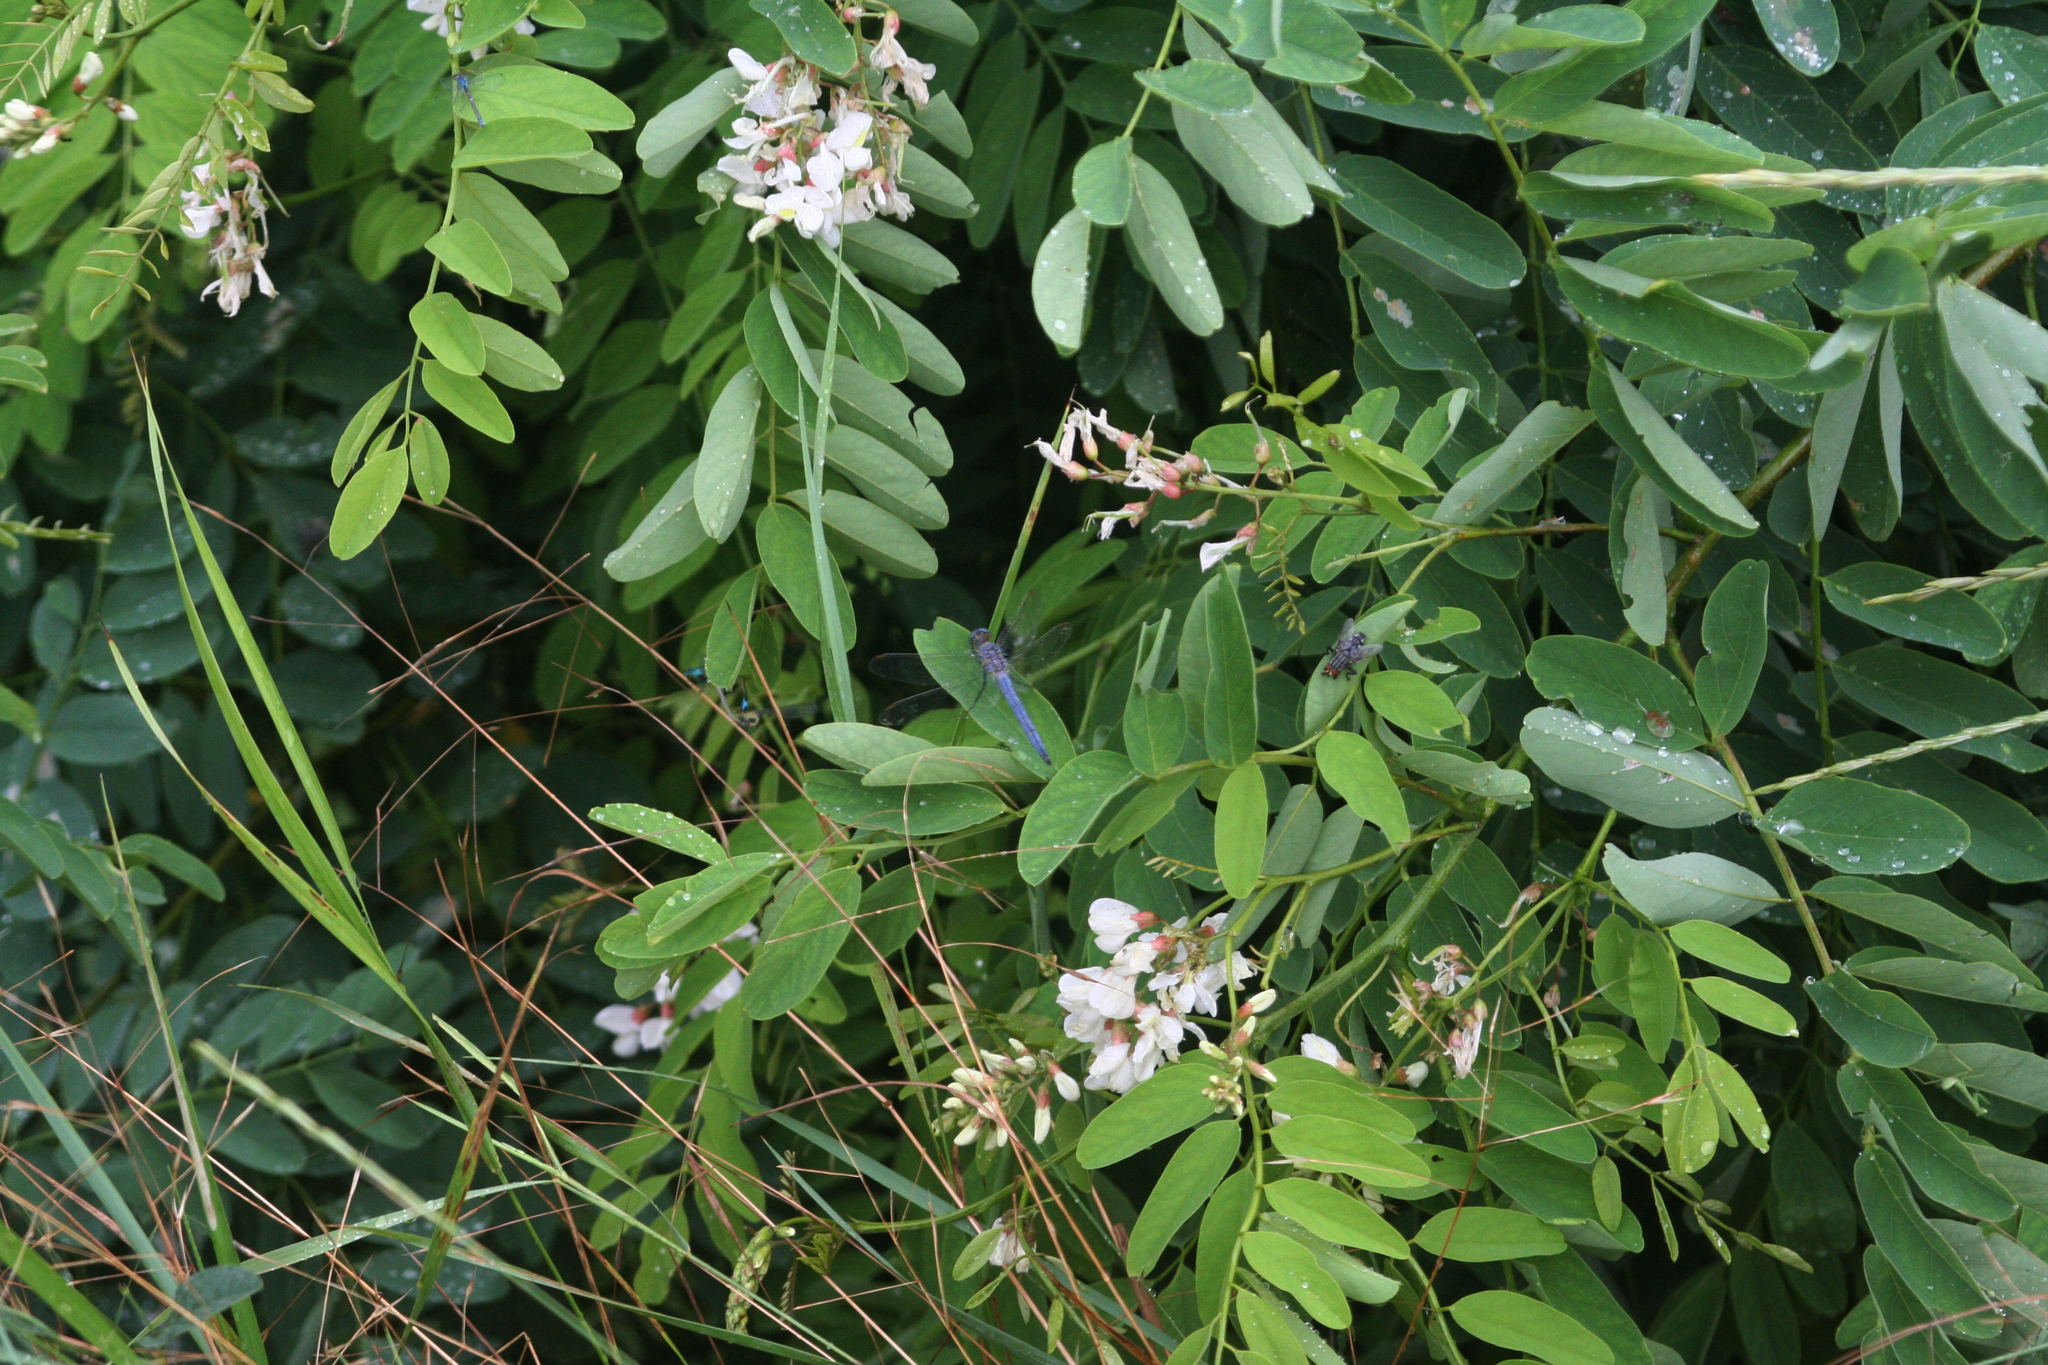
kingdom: Animalia
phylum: Arthropoda
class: Insecta
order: Odonata
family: Libellulidae
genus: Orthetrum
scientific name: Orthetrum coerulescens
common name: Keeled skimmer
